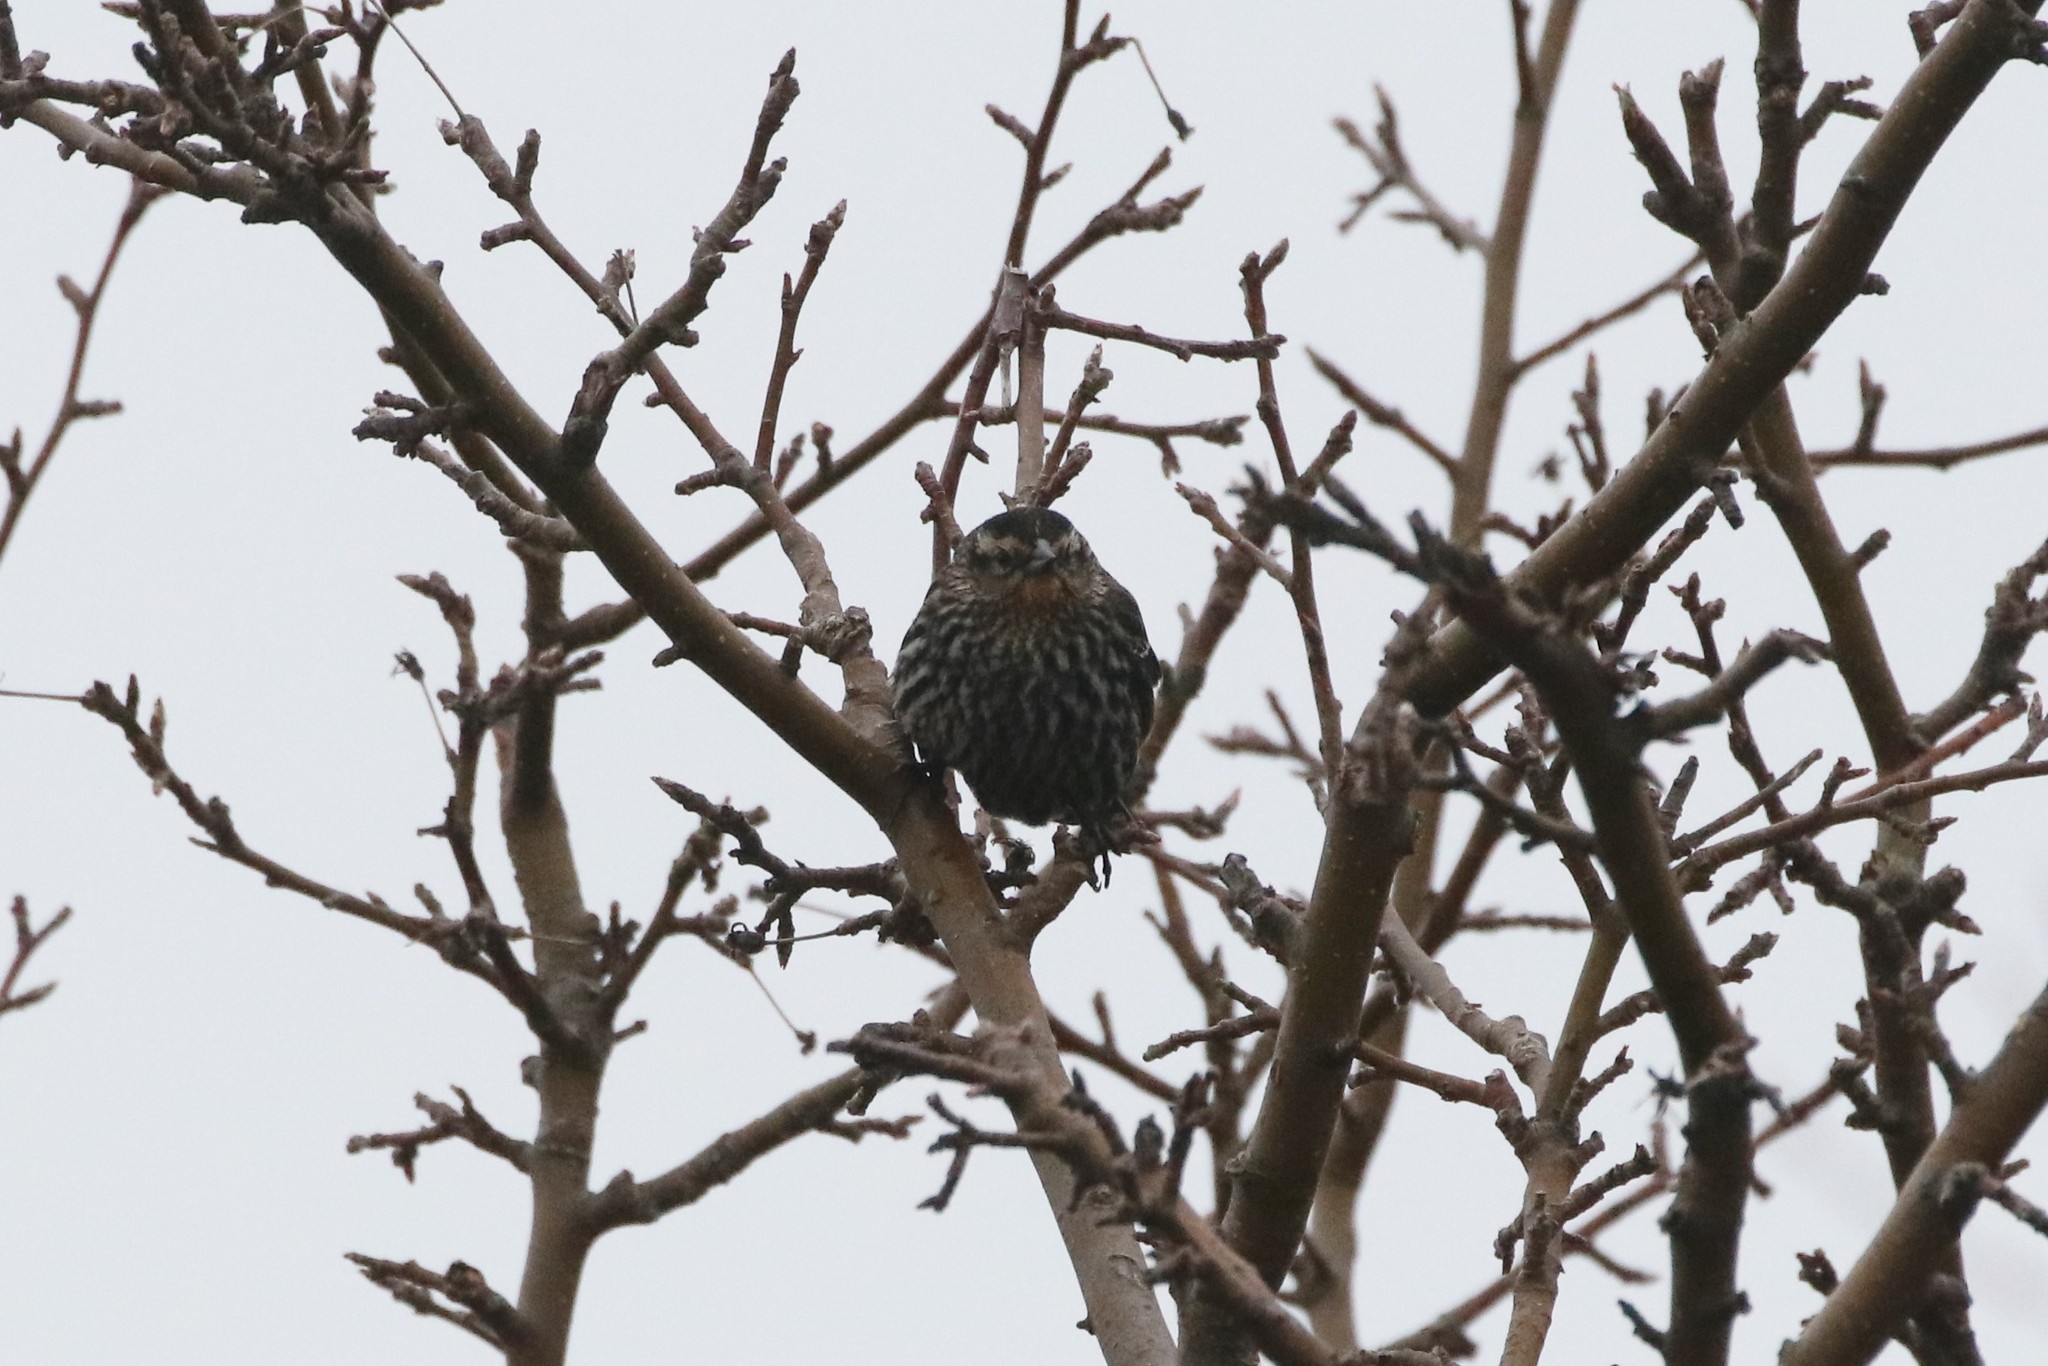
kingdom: Animalia
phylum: Chordata
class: Aves
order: Passeriformes
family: Icteridae
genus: Agelaius
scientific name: Agelaius phoeniceus
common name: Red-winged blackbird
